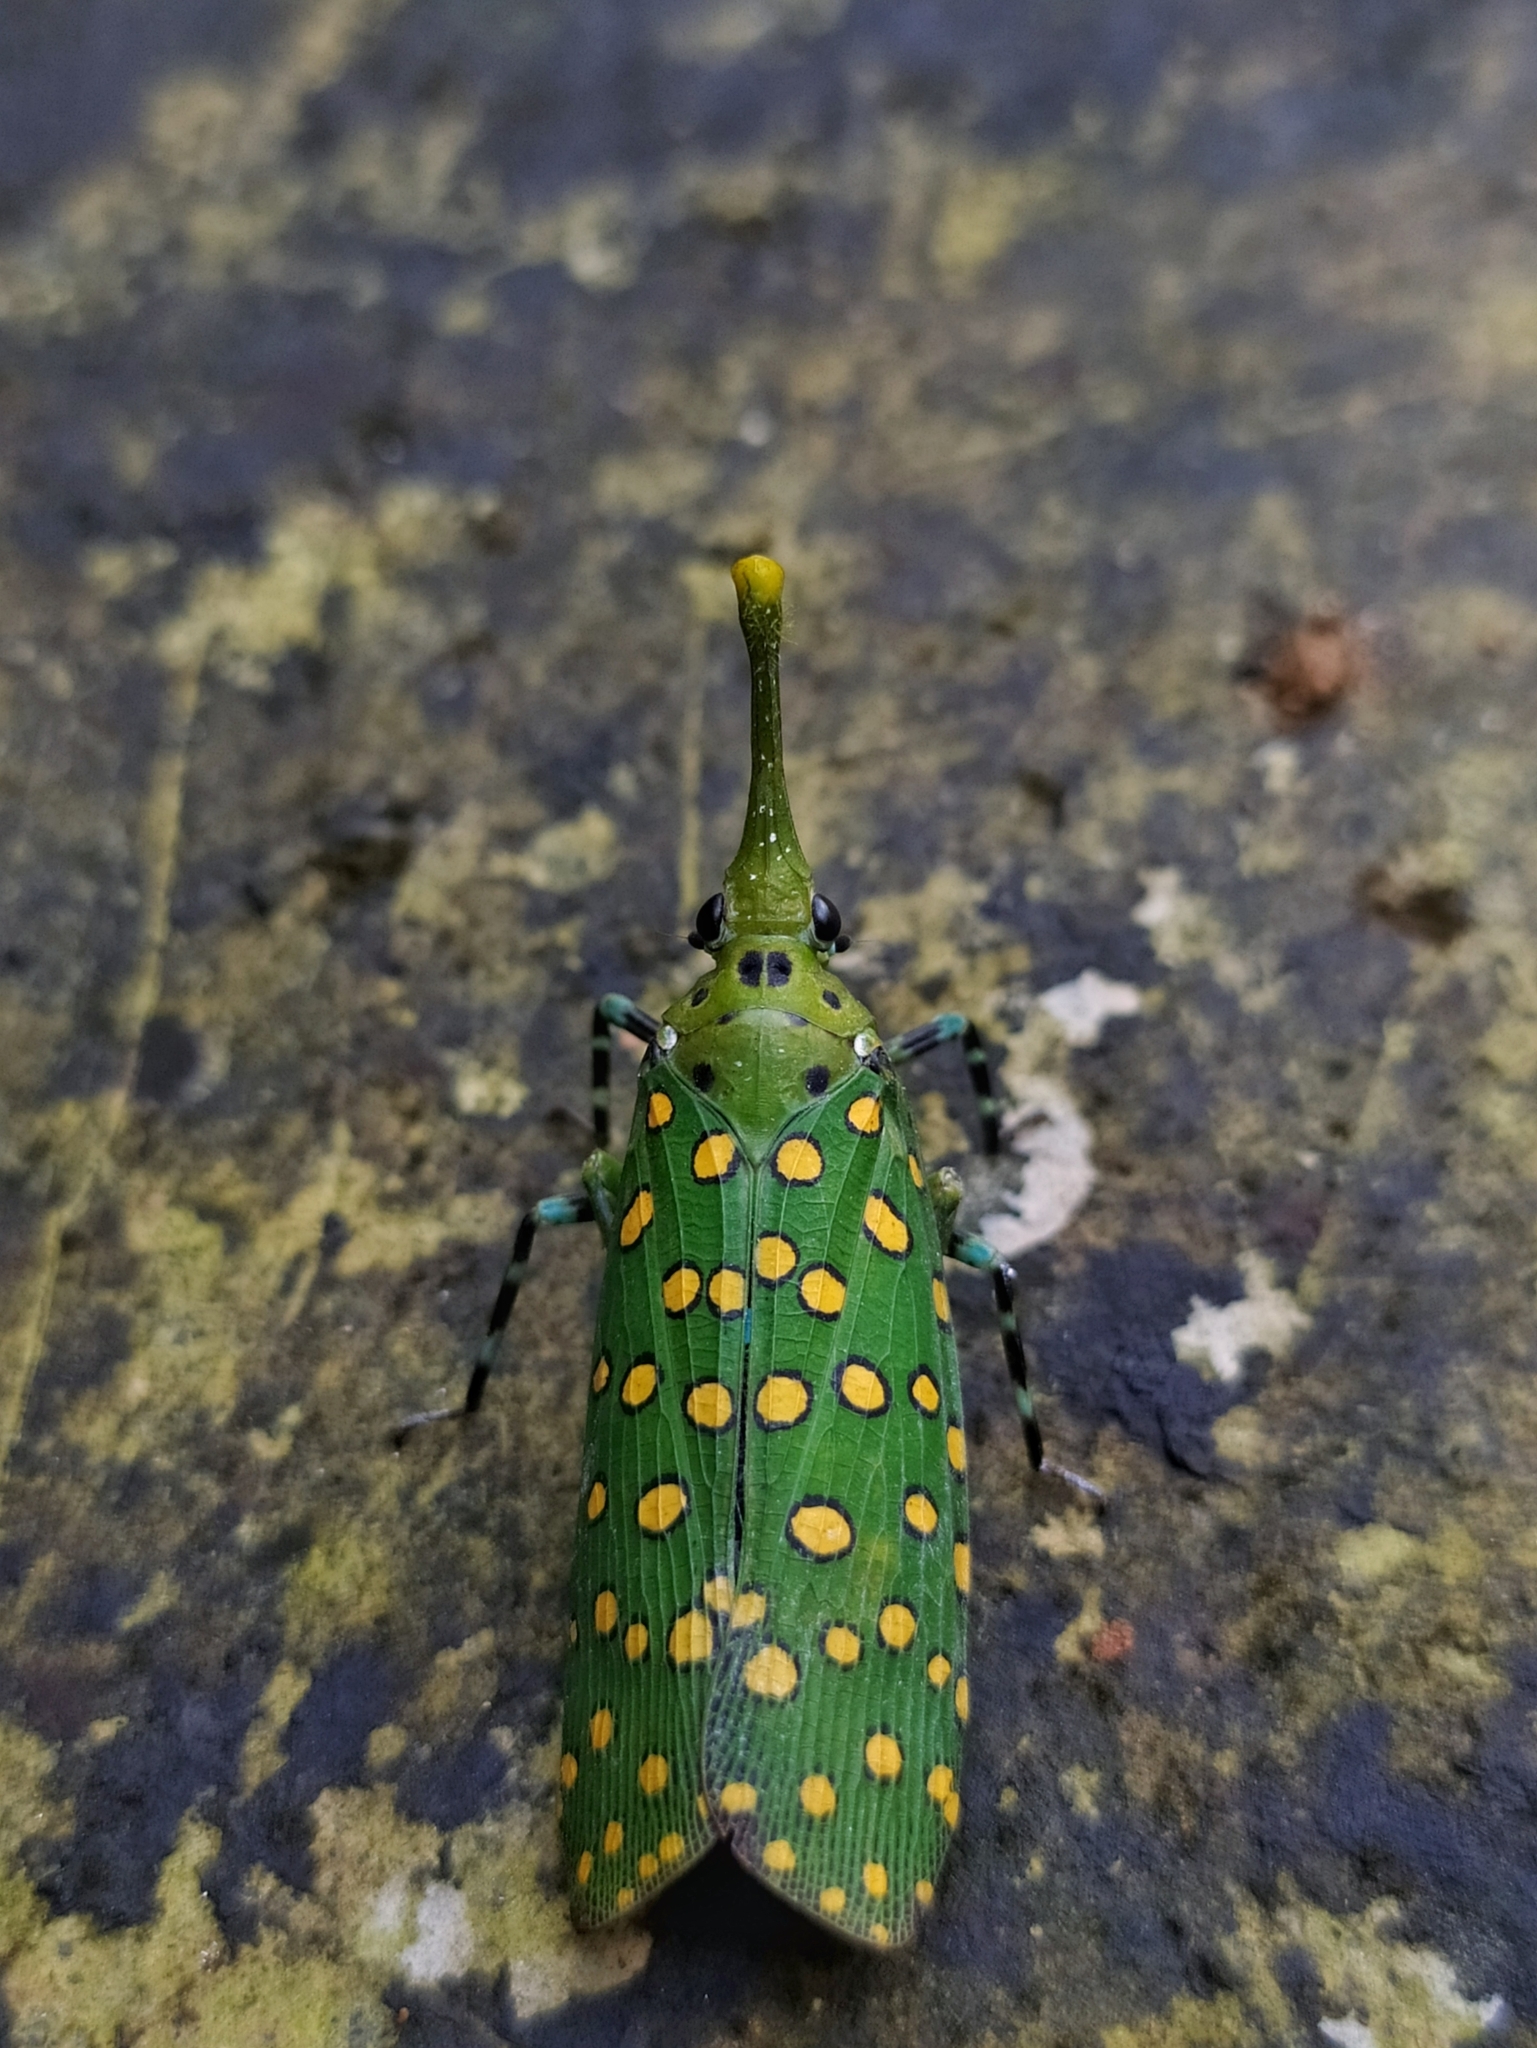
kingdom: Animalia
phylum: Arthropoda
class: Insecta
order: Hemiptera
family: Fulgoridae
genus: Saiva
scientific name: Saiva nodata
